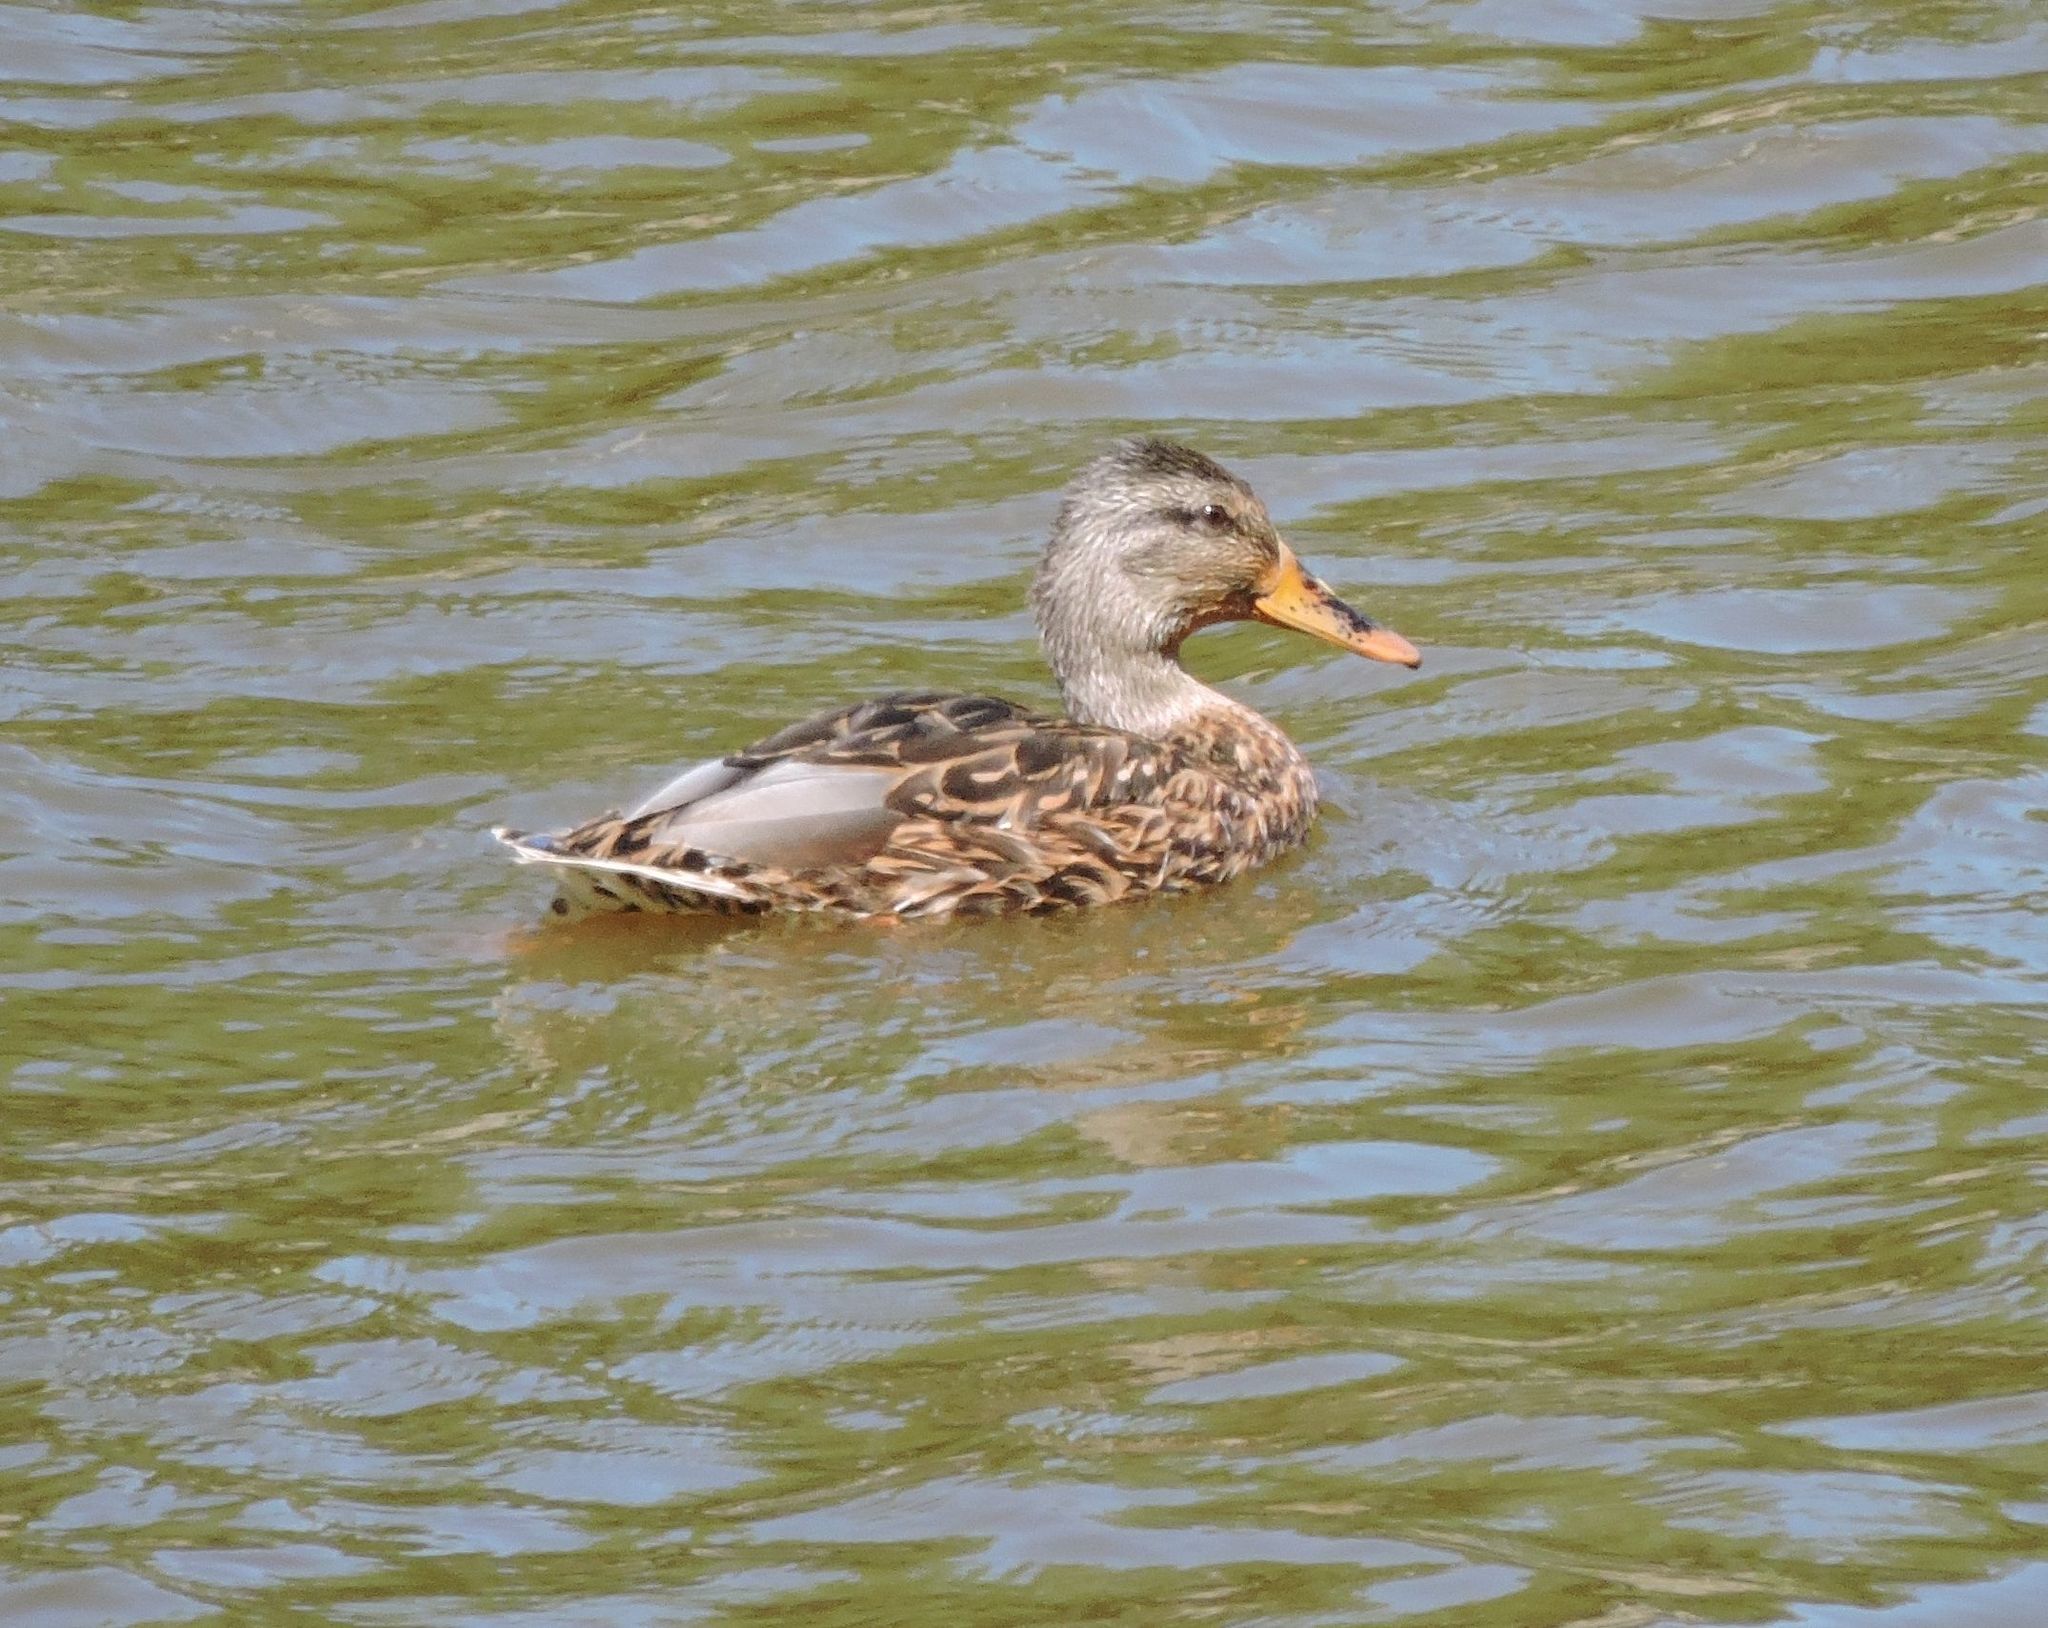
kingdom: Animalia
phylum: Chordata
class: Aves
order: Anseriformes
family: Anatidae
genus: Anas
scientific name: Anas platyrhynchos
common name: Mallard
